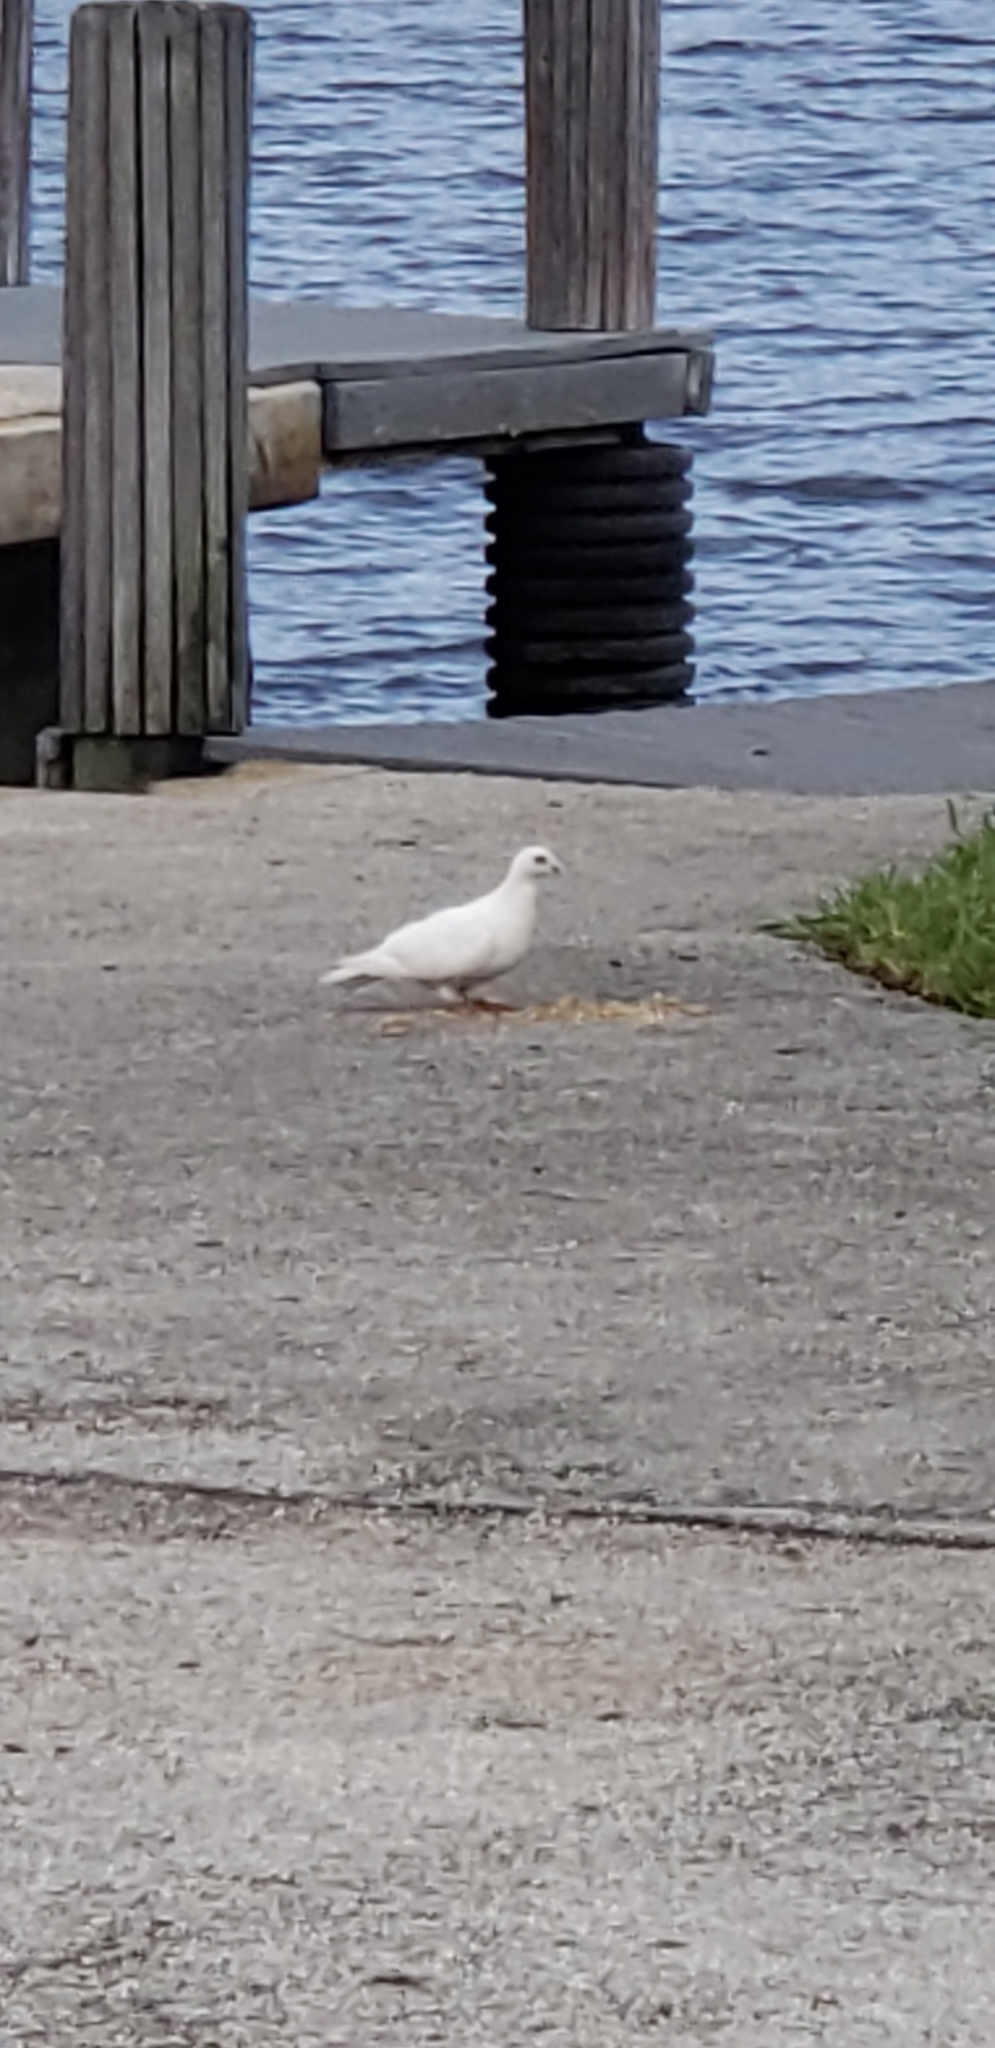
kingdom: Animalia
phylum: Chordata
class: Aves
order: Columbiformes
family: Columbidae
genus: Columba
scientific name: Columba livia
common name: Rock pigeon
